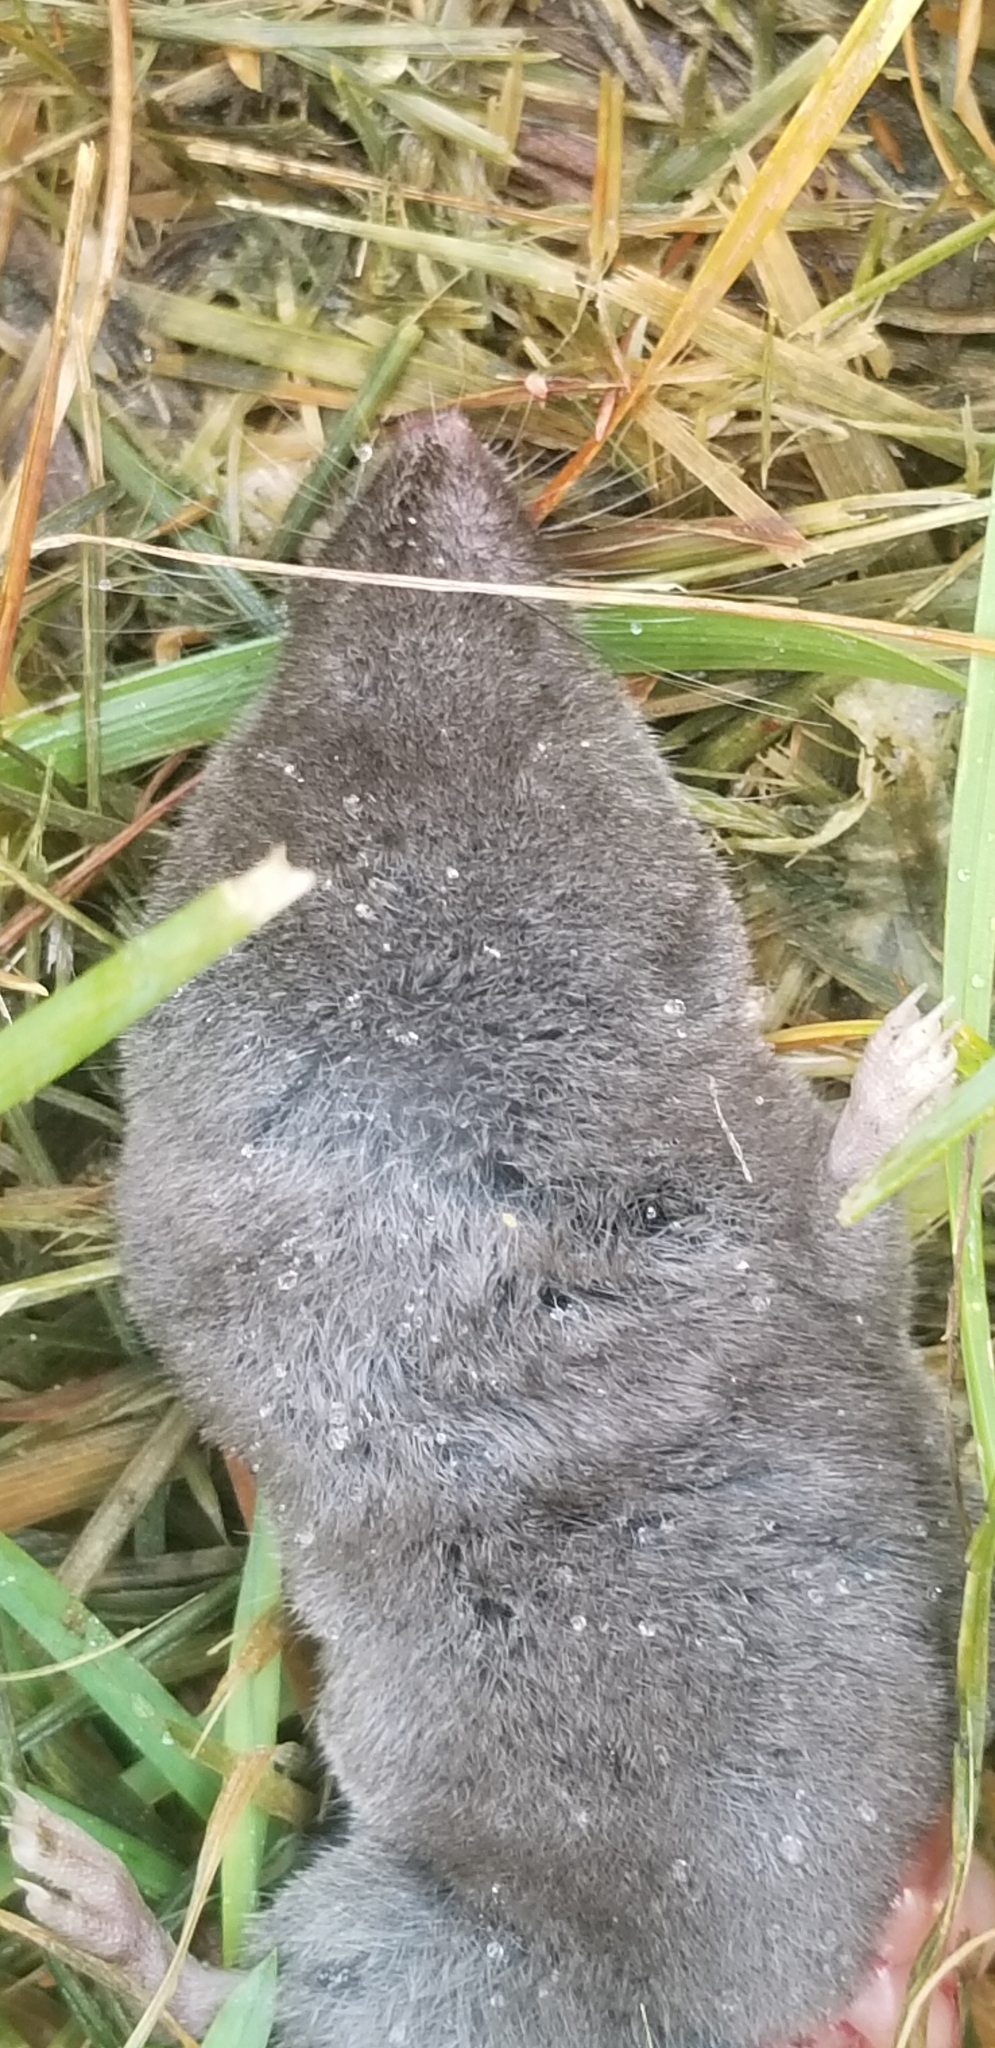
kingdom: Animalia
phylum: Chordata
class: Mammalia
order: Soricomorpha
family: Soricidae
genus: Blarina
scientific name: Blarina brevicauda
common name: Northern short-tailed shrew
